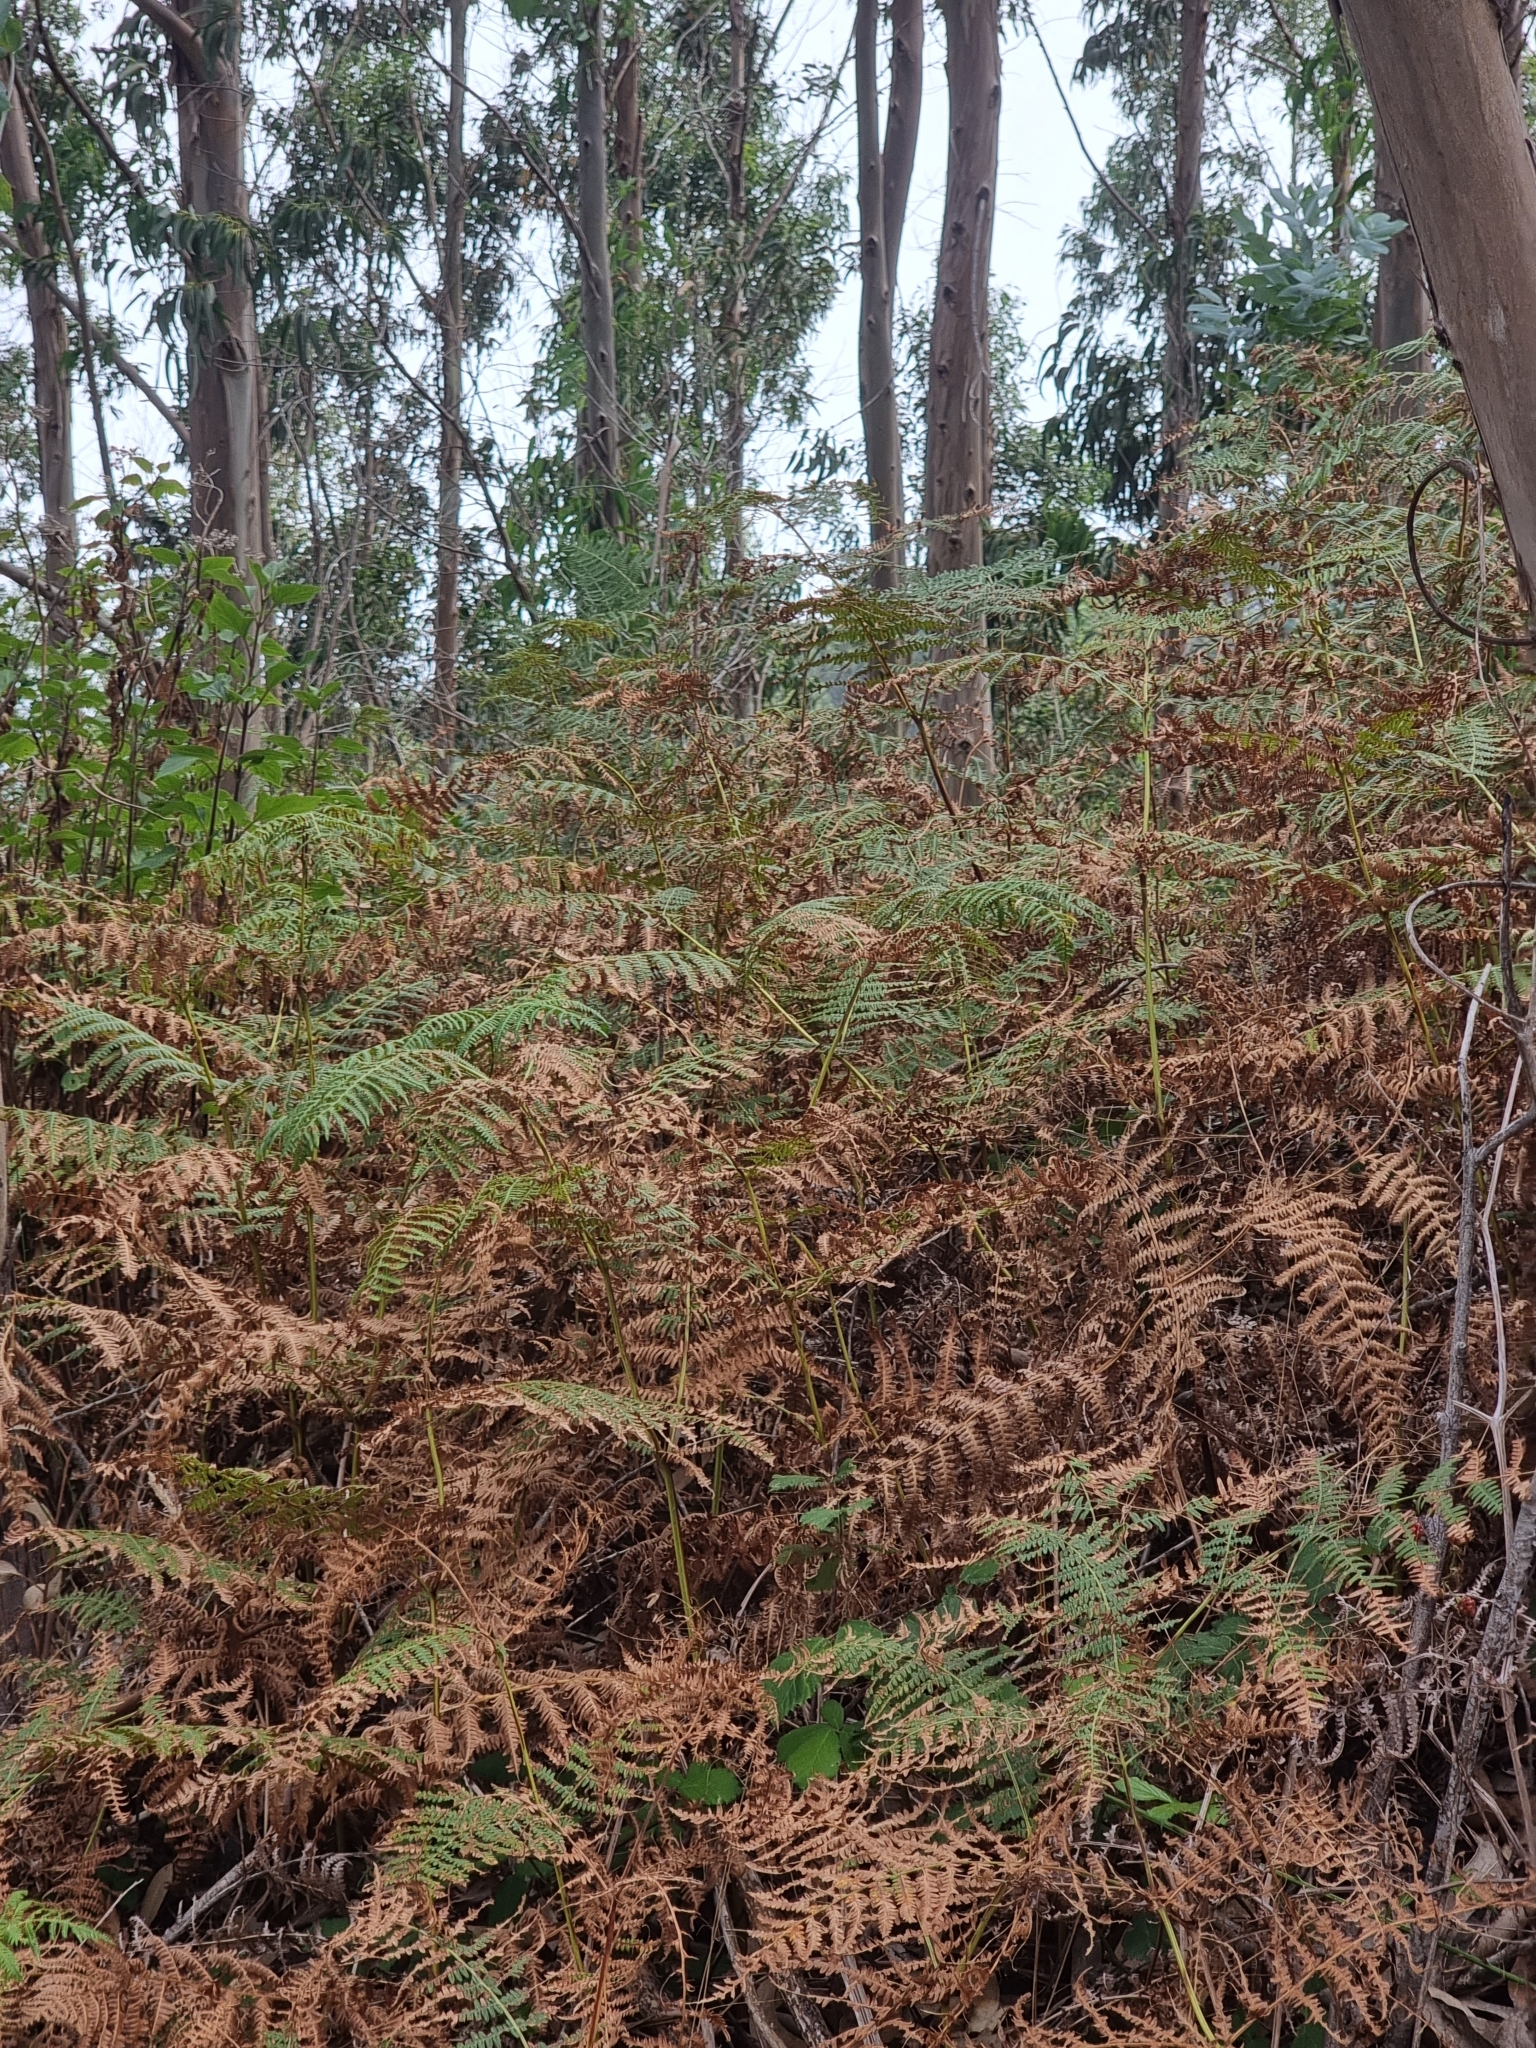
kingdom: Plantae
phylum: Tracheophyta
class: Polypodiopsida
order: Polypodiales
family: Dennstaedtiaceae
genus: Pteridium
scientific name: Pteridium aquilinum
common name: Bracken
